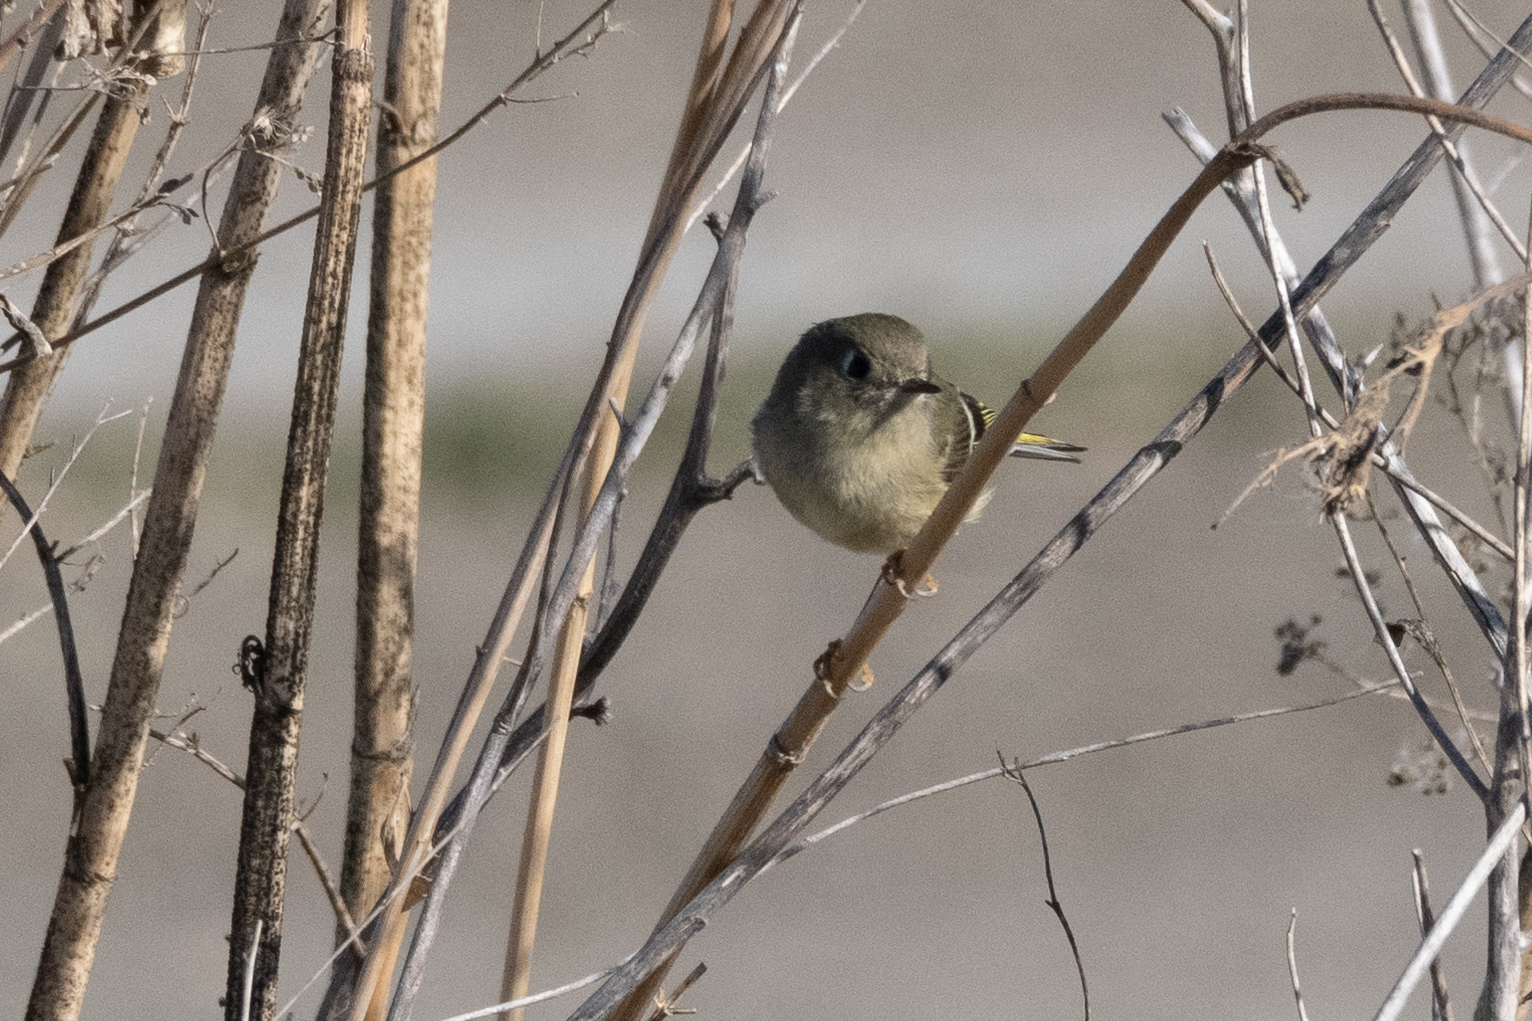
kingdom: Animalia
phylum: Chordata
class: Aves
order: Passeriformes
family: Regulidae
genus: Regulus
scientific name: Regulus calendula
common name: Ruby-crowned kinglet
